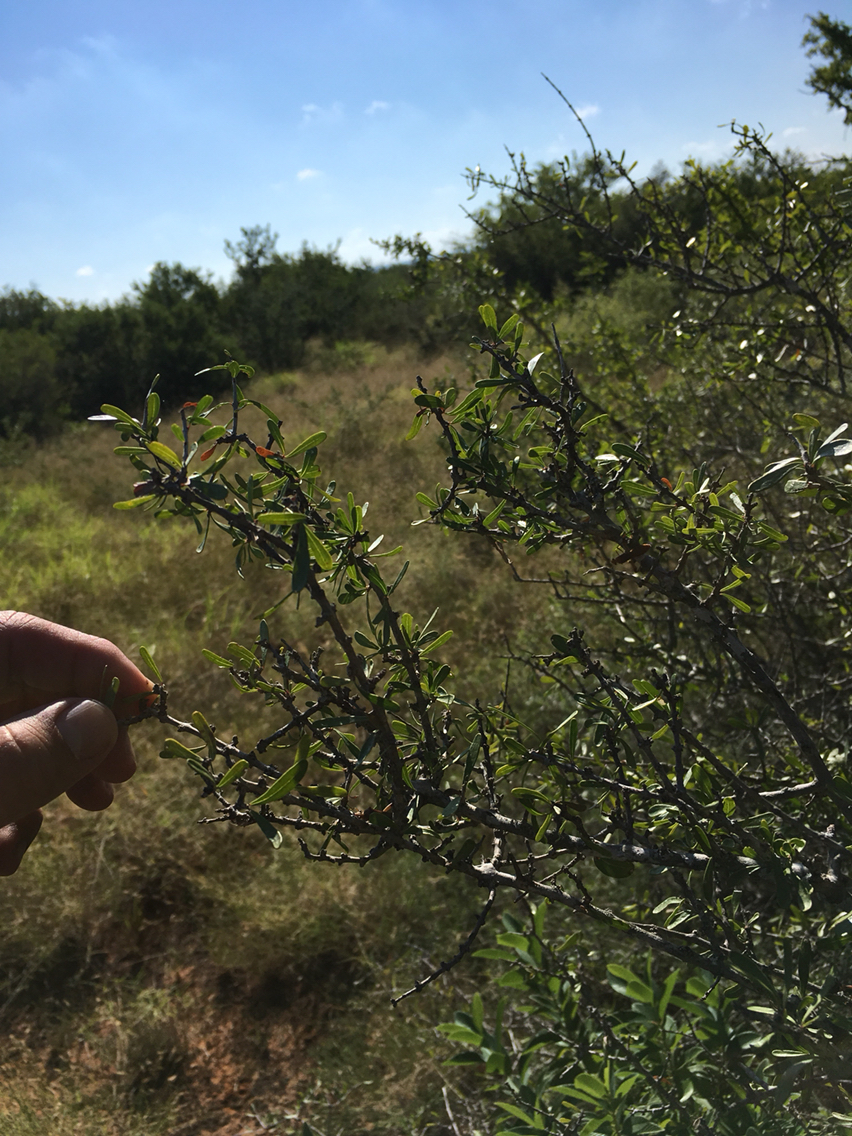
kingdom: Plantae
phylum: Tracheophyta
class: Magnoliopsida
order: Lamiales
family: Oleaceae
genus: Forestiera
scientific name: Forestiera angustifolia
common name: Elbowbush
